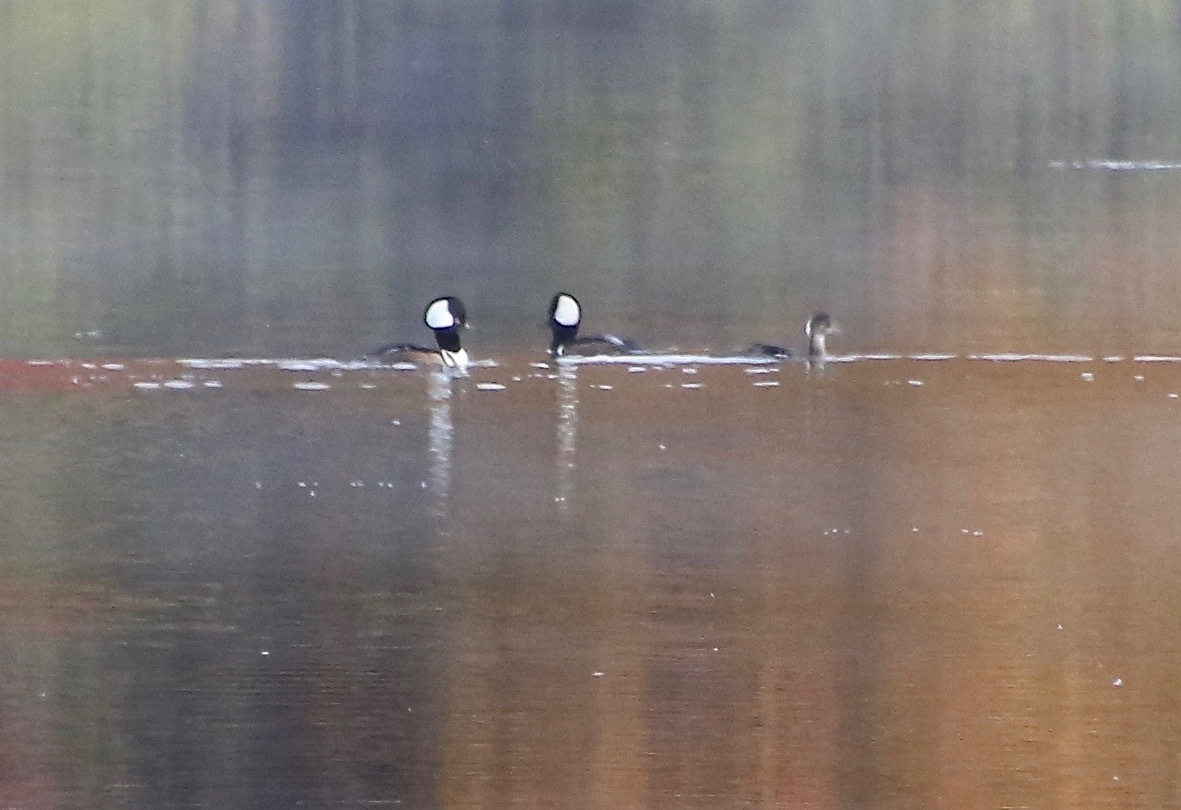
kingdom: Animalia
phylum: Chordata
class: Aves
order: Anseriformes
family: Anatidae
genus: Lophodytes
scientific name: Lophodytes cucullatus
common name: Hooded merganser
